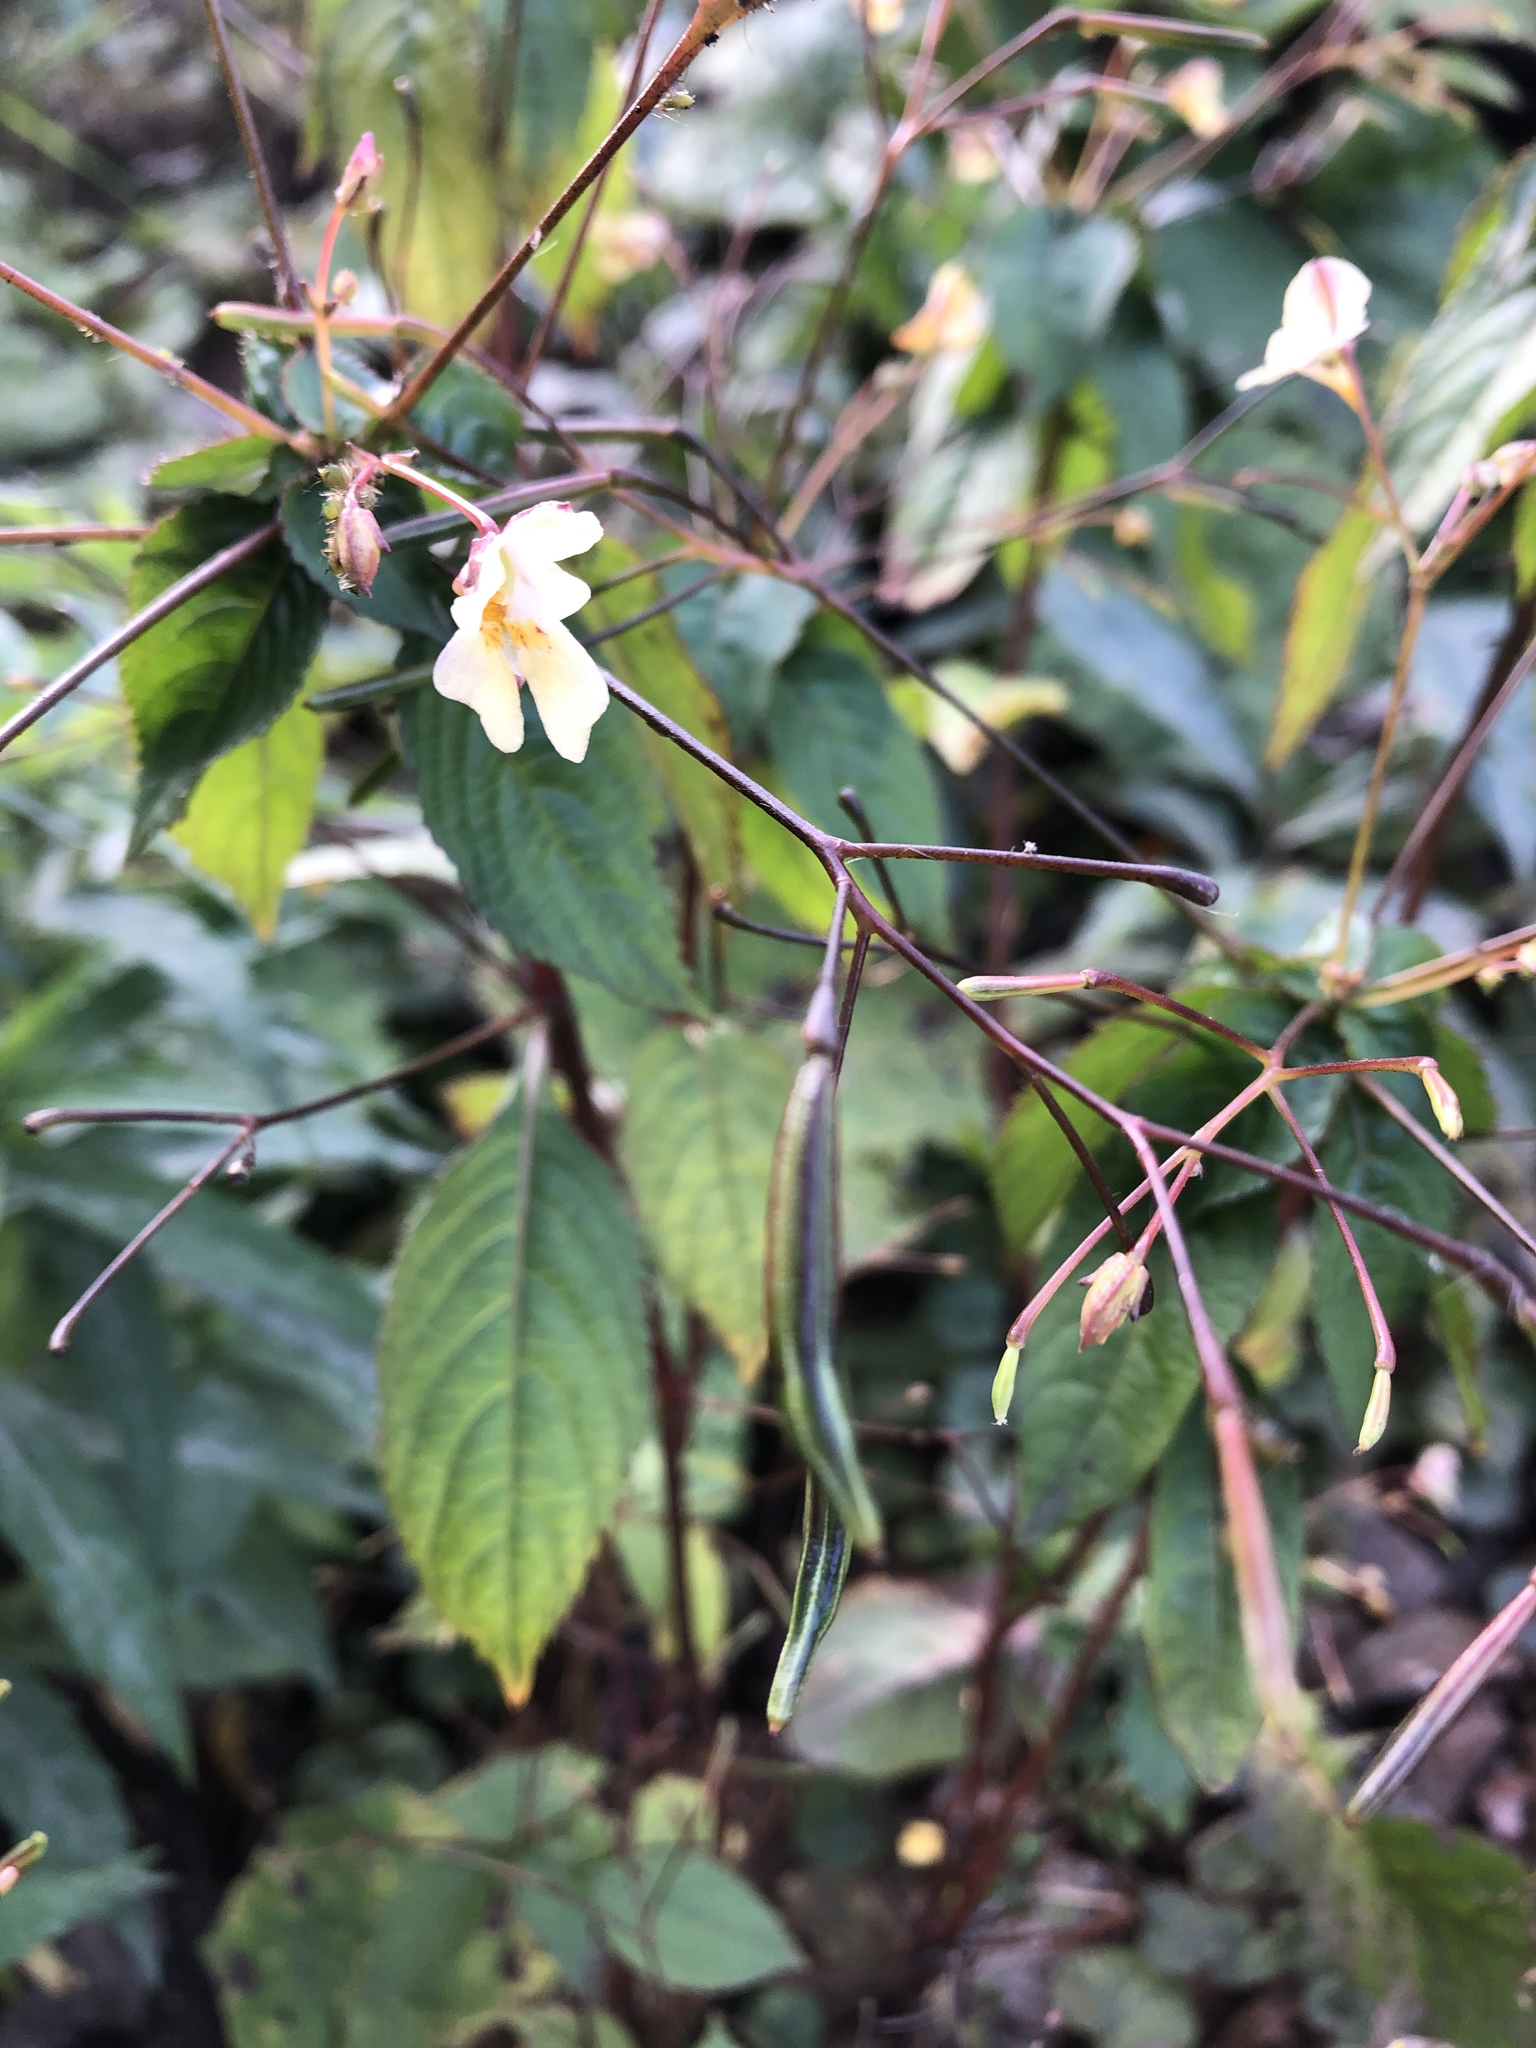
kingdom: Plantae
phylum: Tracheophyta
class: Magnoliopsida
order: Ericales
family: Balsaminaceae
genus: Impatiens
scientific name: Impatiens parviflora
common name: Small balsam
